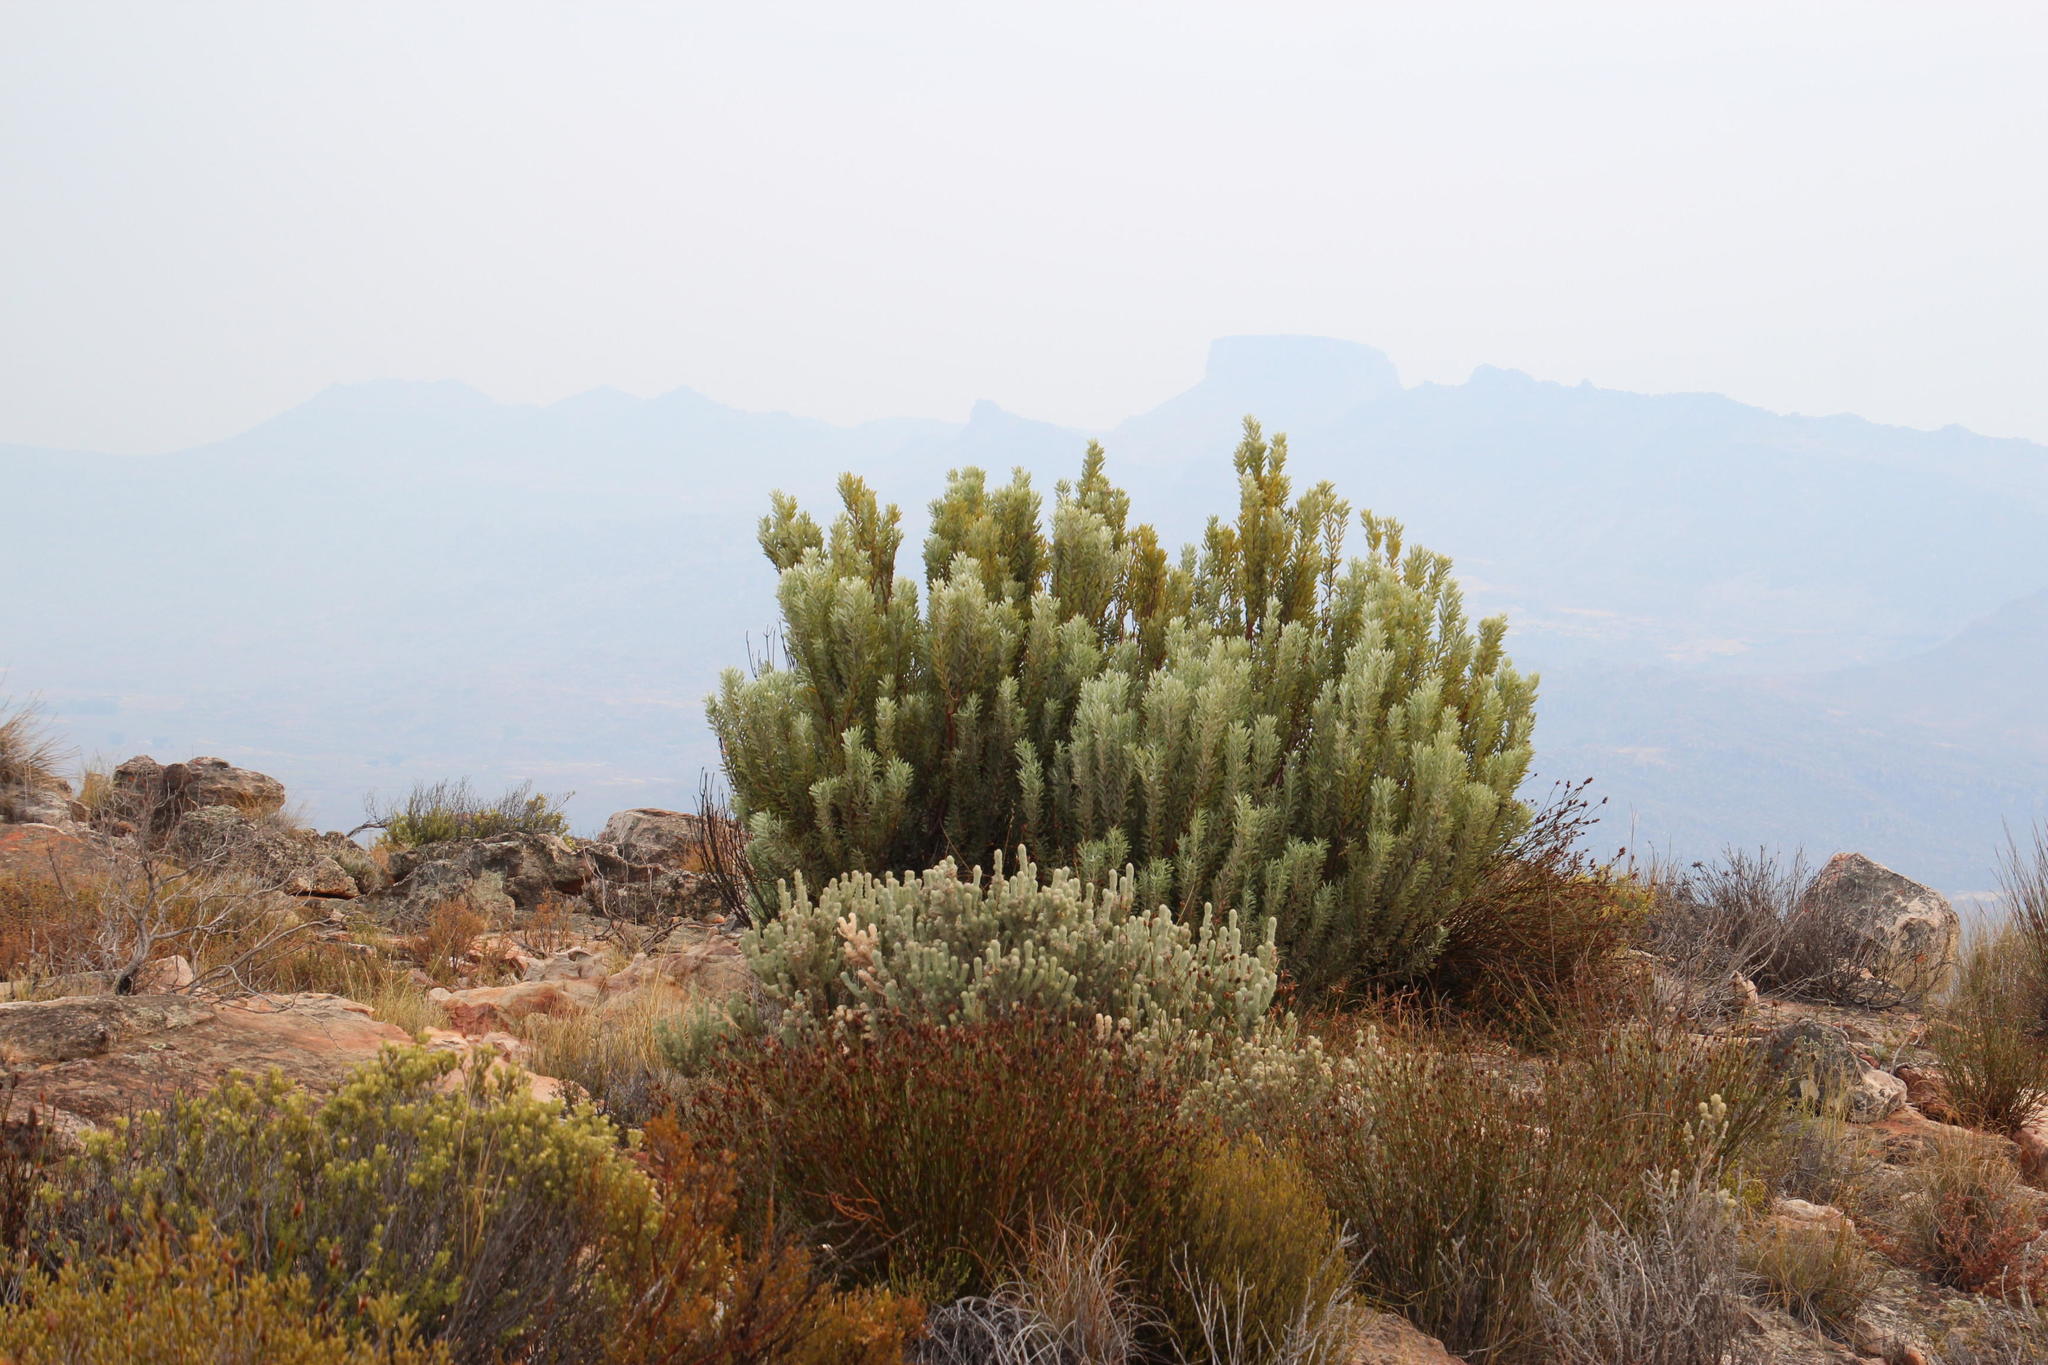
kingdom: Plantae
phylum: Tracheophyta
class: Magnoliopsida
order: Proteales
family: Proteaceae
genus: Leucadendron
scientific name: Leucadendron pubescens
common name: Grey conebush
